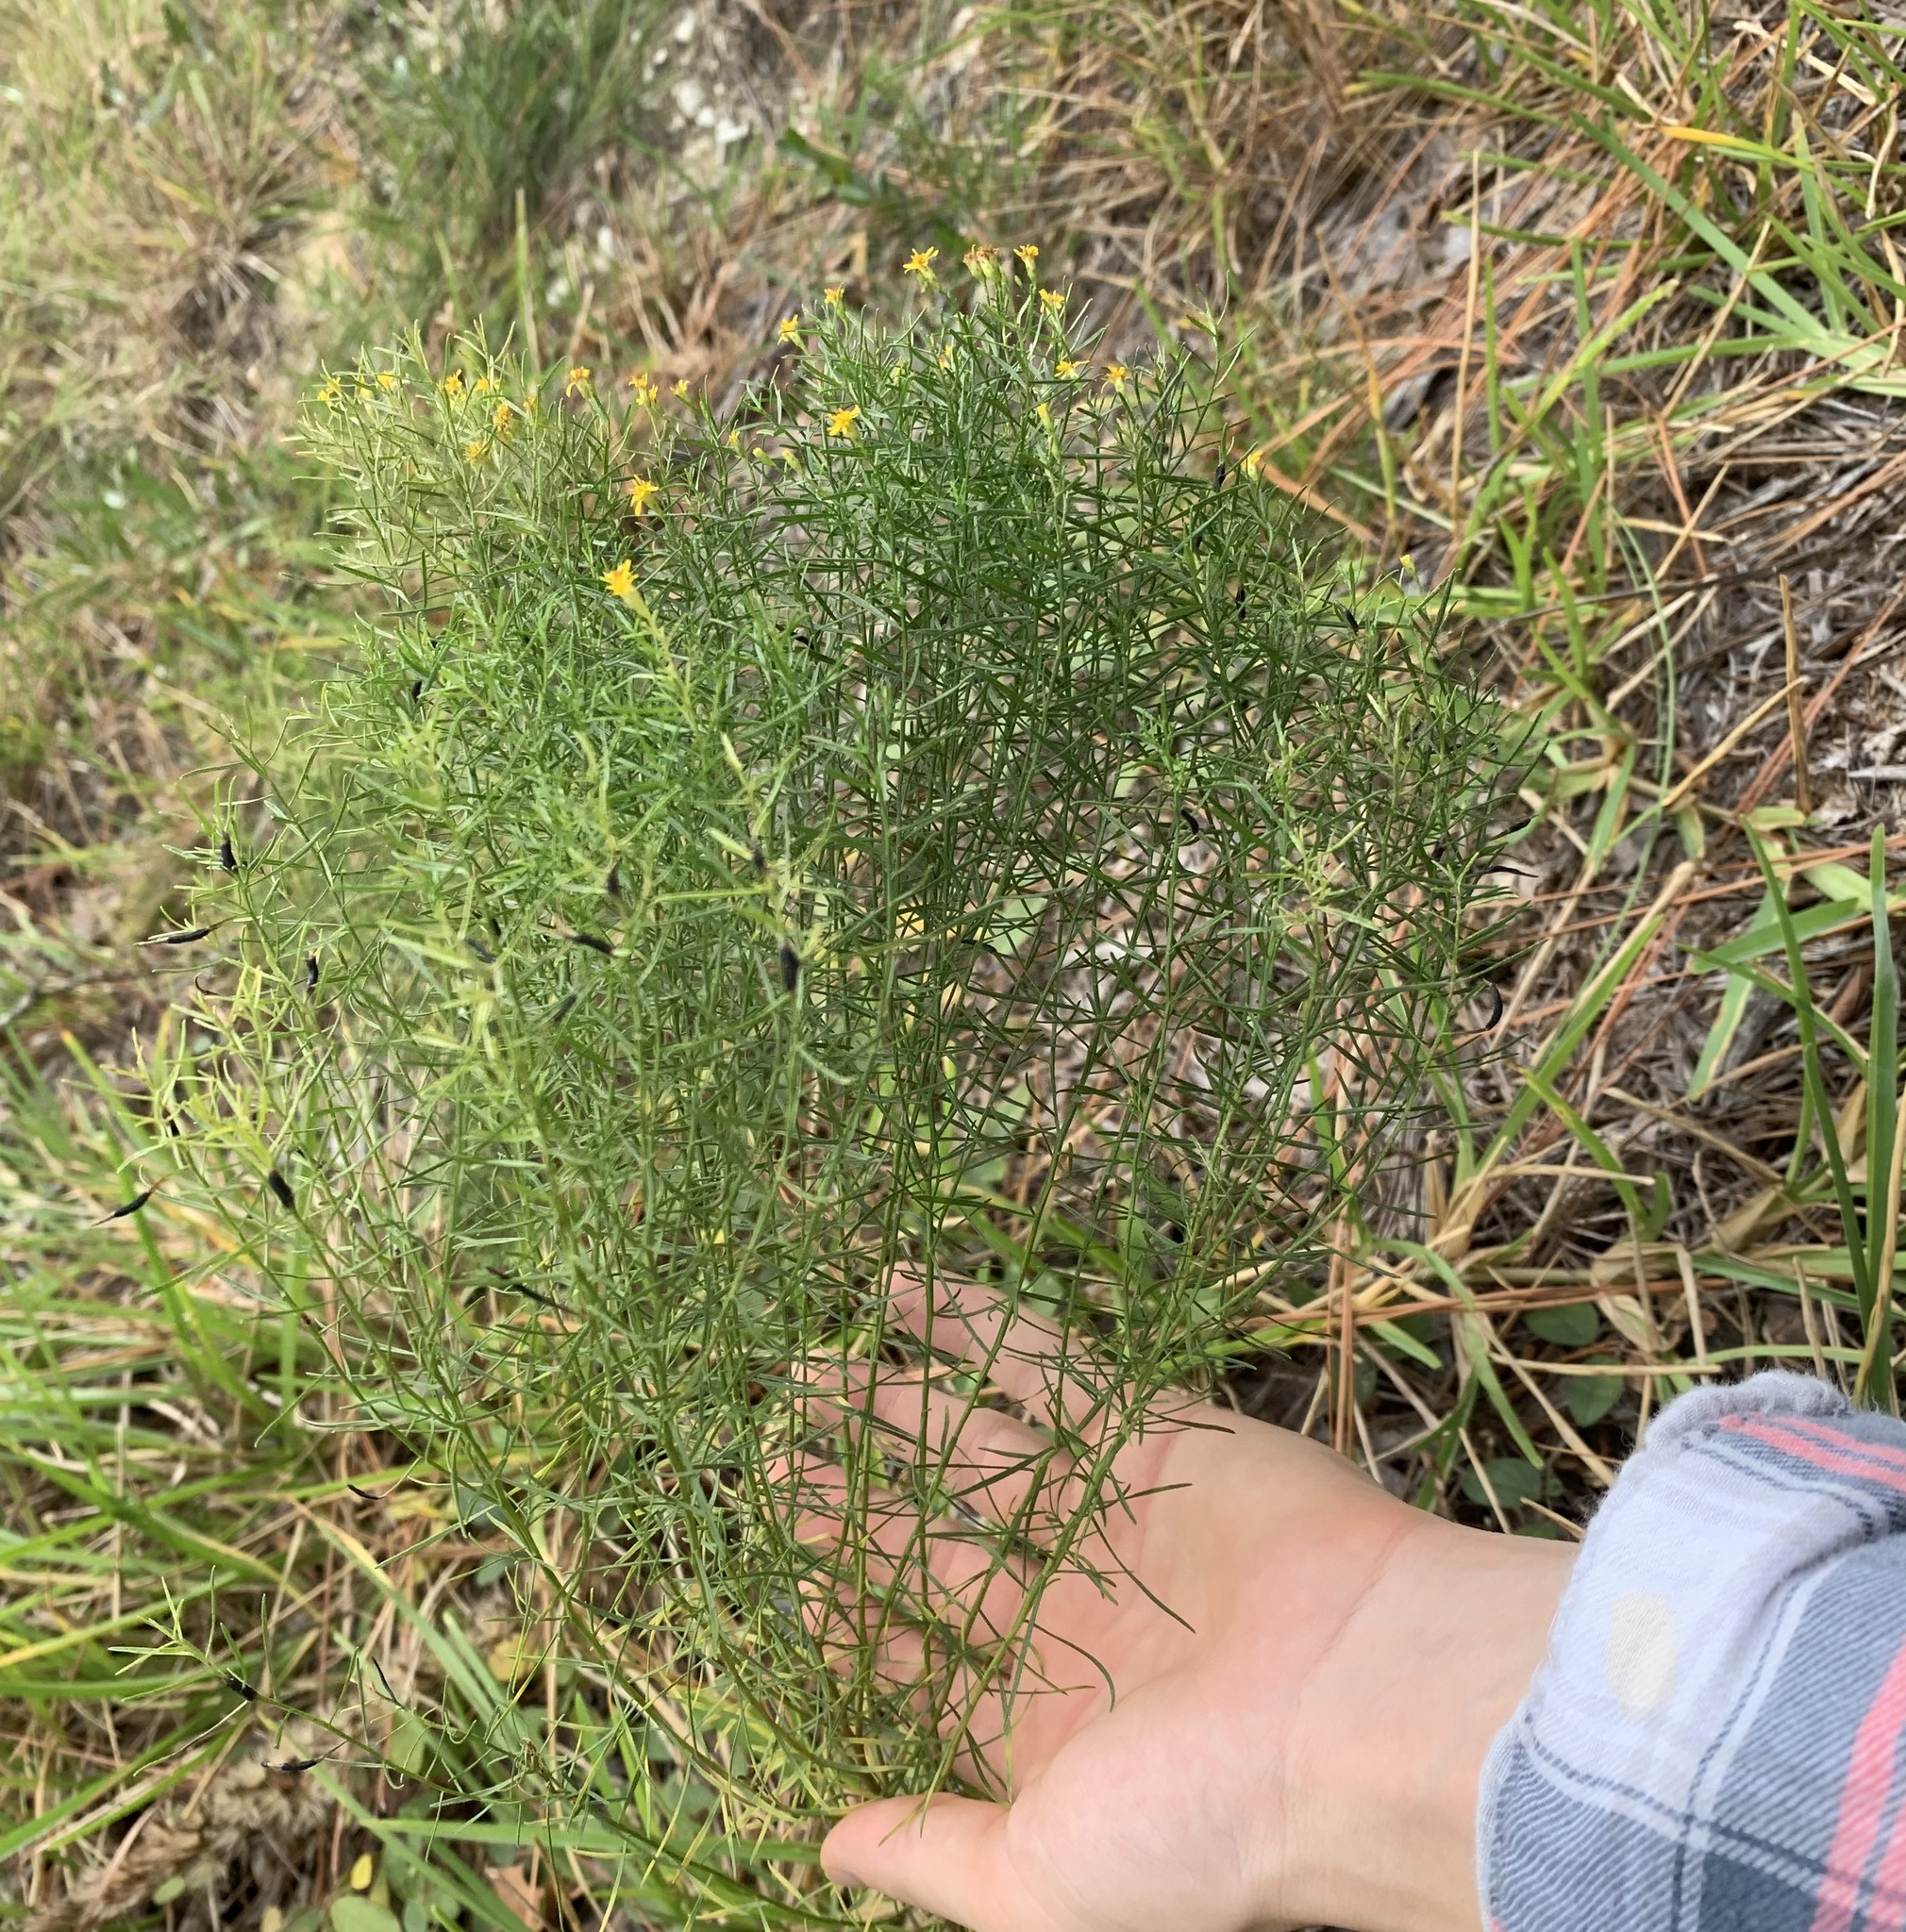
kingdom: Plantae
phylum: Tracheophyta
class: Magnoliopsida
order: Asterales
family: Asteraceae
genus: Euthamia
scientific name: Euthamia caroliniana
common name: Coastal plain goldentop
